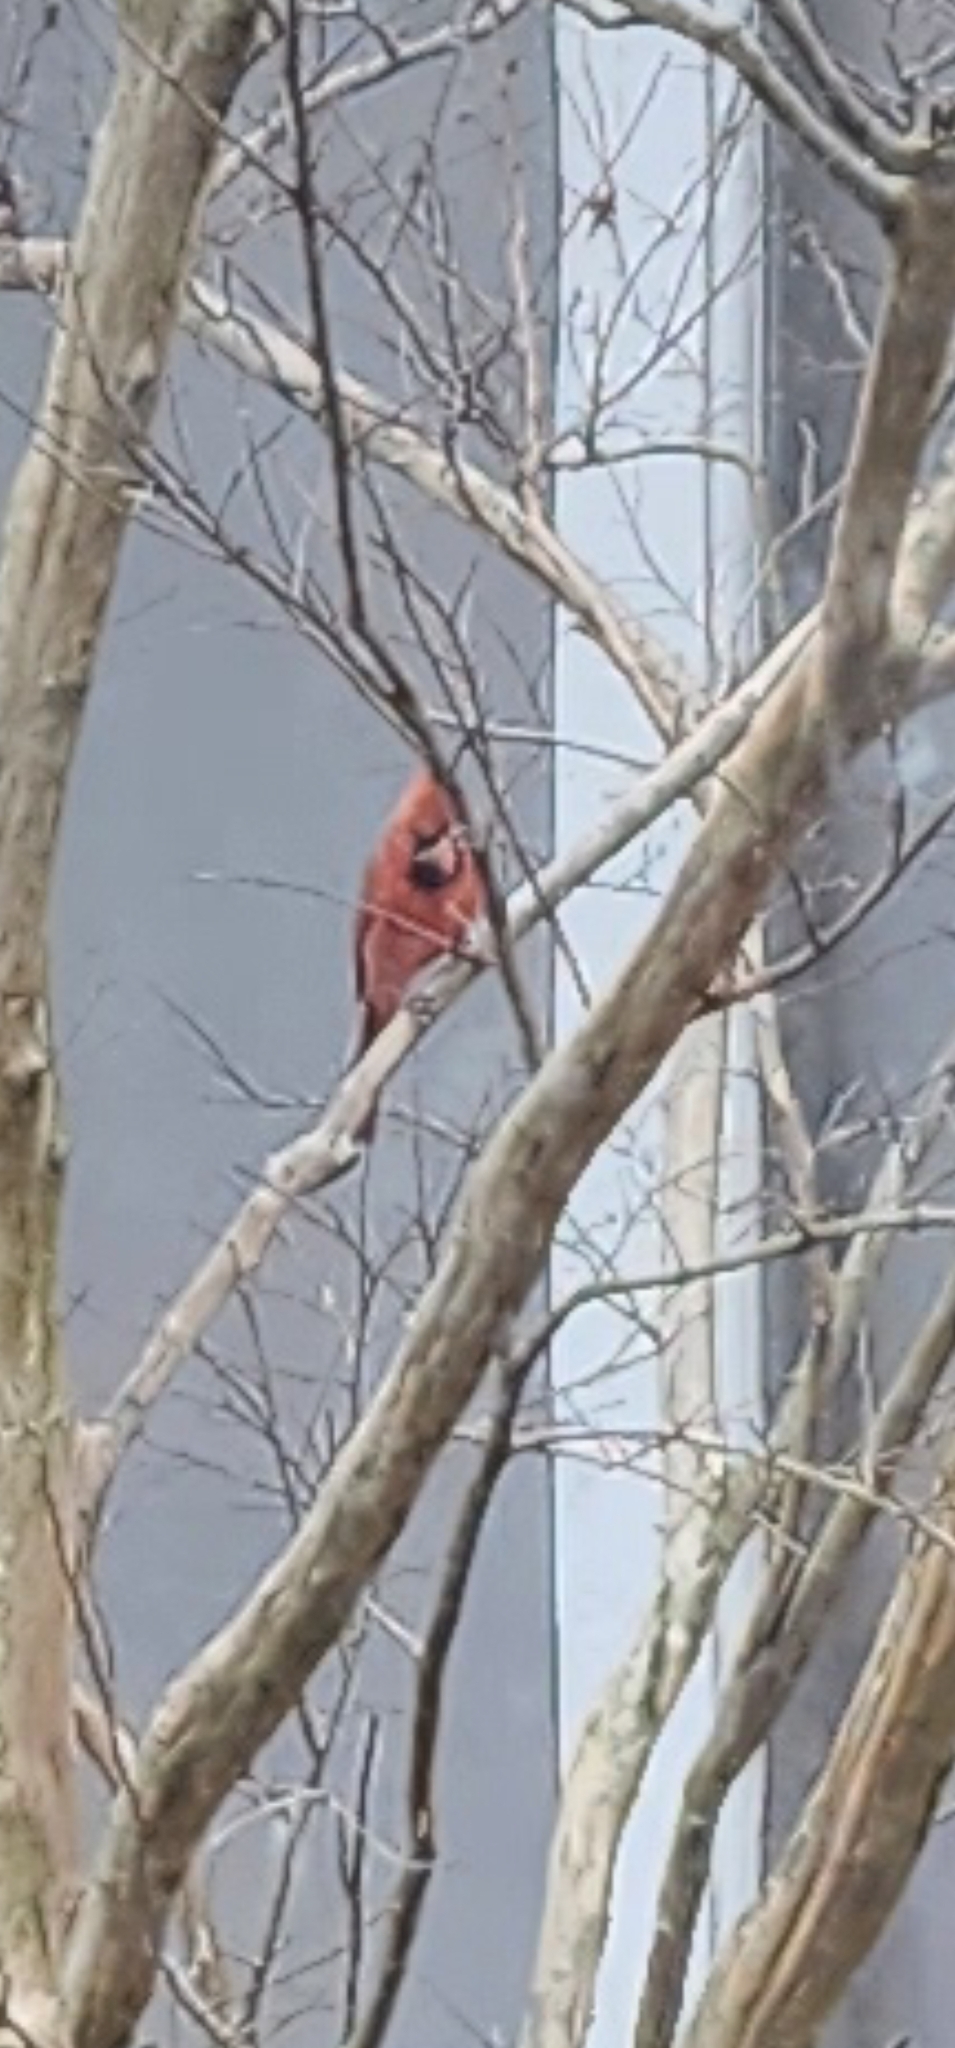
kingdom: Animalia
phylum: Chordata
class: Aves
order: Passeriformes
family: Cardinalidae
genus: Cardinalis
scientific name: Cardinalis cardinalis
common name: Northern cardinal
